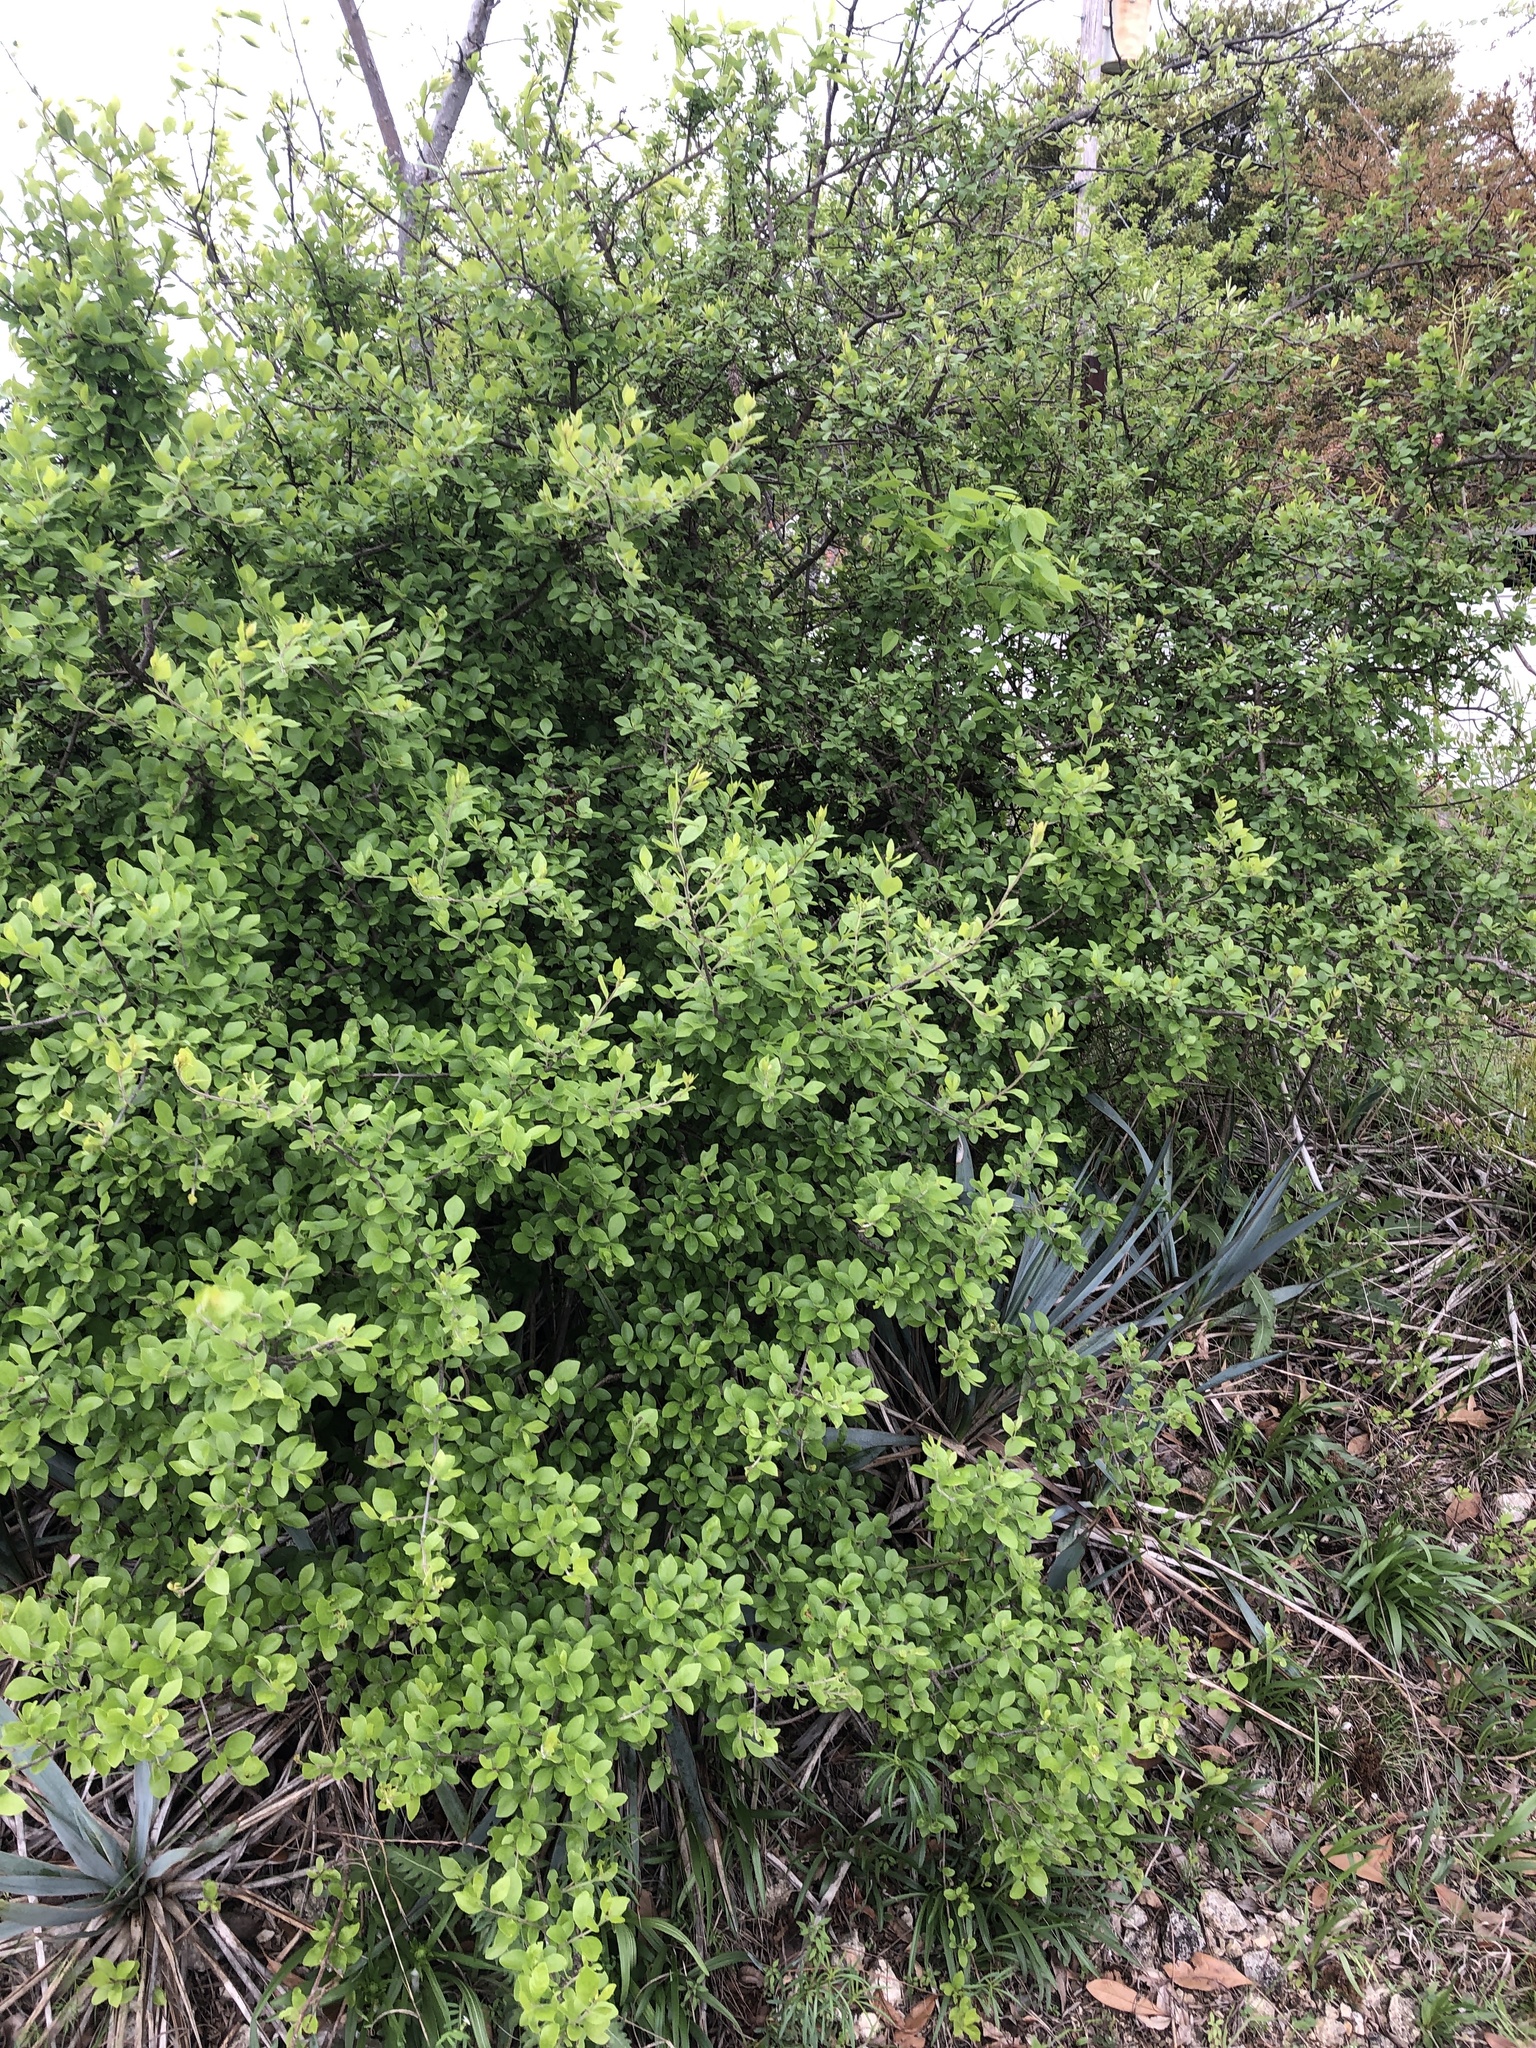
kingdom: Plantae
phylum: Tracheophyta
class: Magnoliopsida
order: Lamiales
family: Oleaceae
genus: Forestiera
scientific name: Forestiera pubescens
